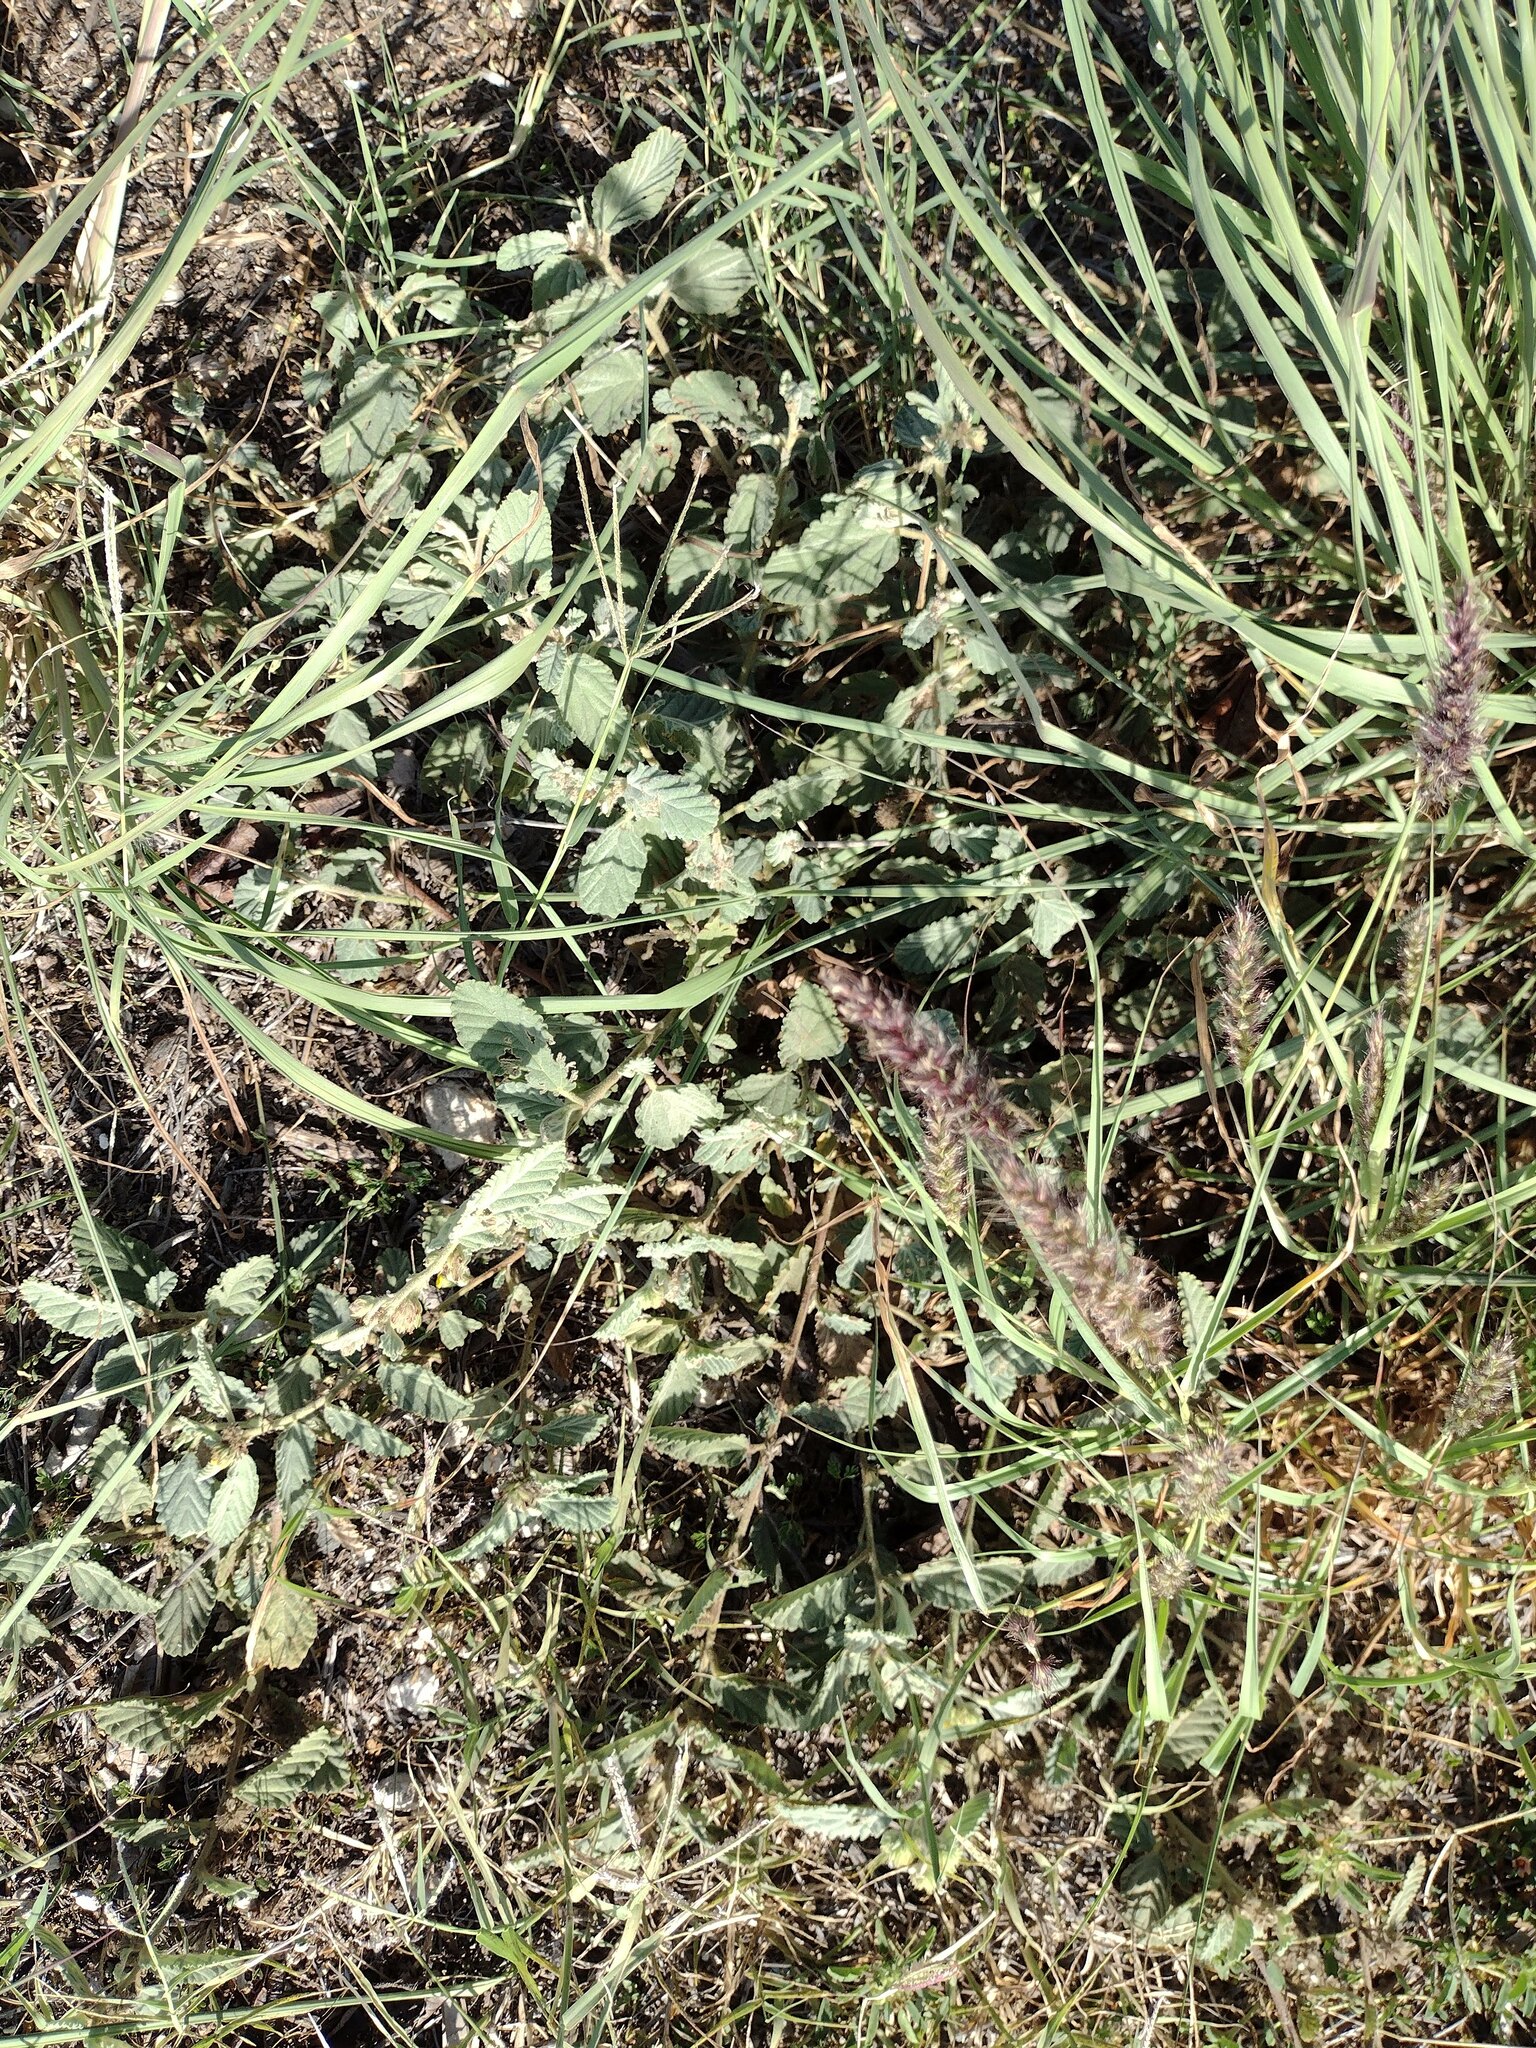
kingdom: Plantae
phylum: Tracheophyta
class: Liliopsida
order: Poales
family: Poaceae
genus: Cenchrus
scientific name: Cenchrus ciliaris
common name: Buffelgrass
